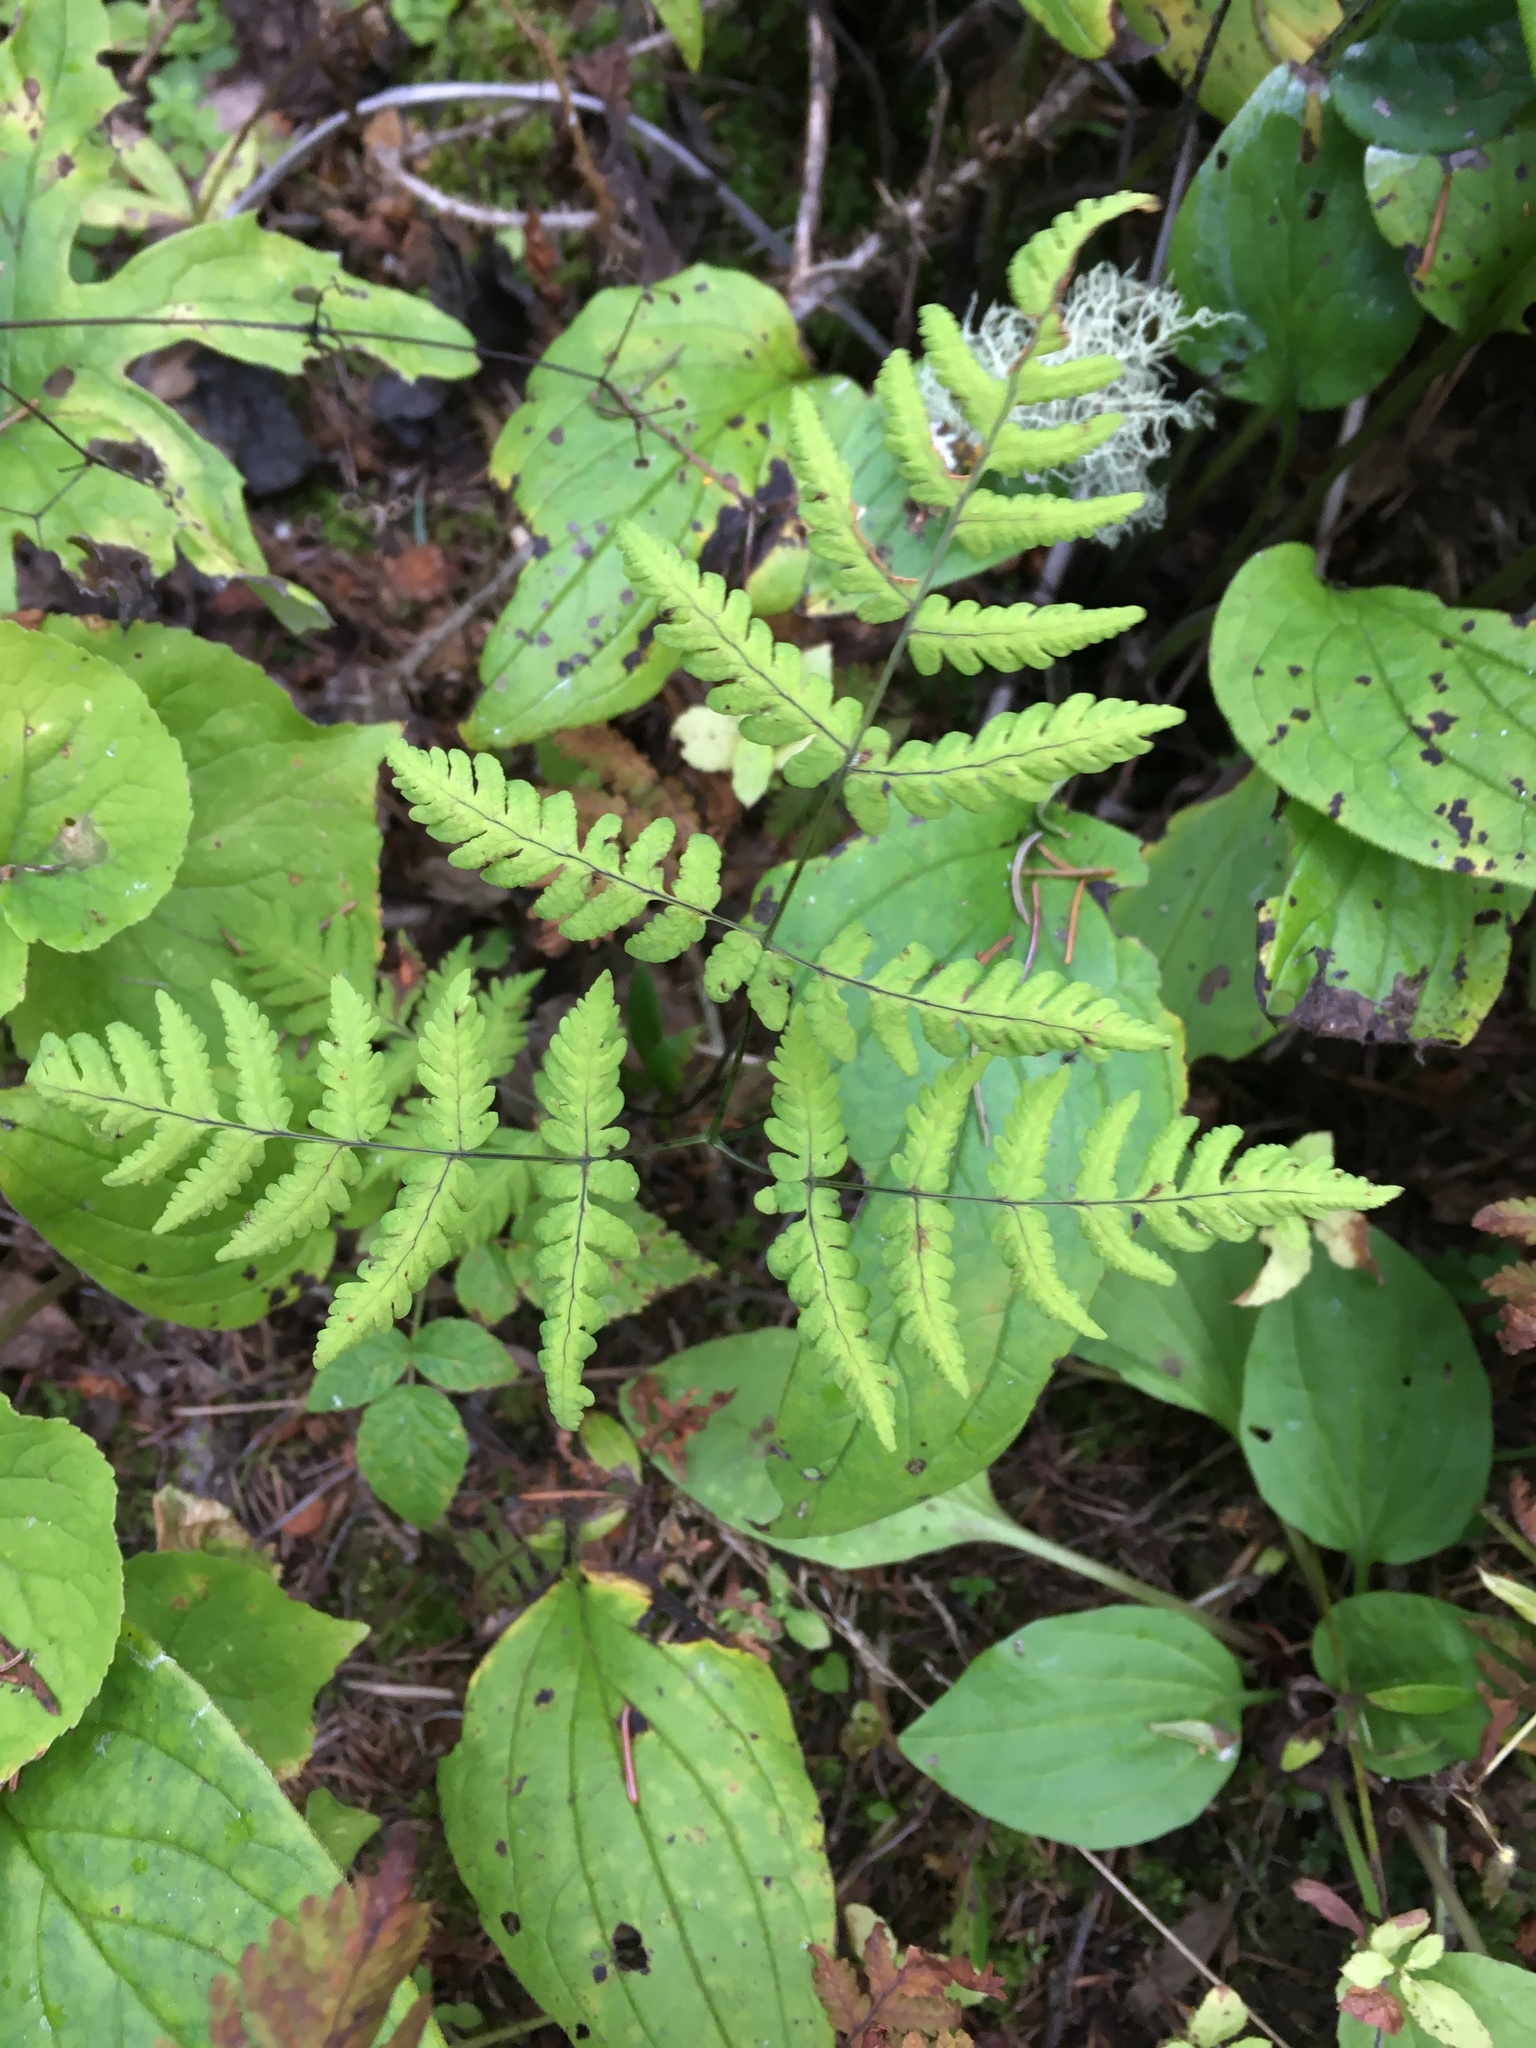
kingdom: Plantae
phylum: Tracheophyta
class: Polypodiopsida
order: Polypodiales
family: Cystopteridaceae
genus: Gymnocarpium
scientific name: Gymnocarpium dryopteris
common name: Oak fern
